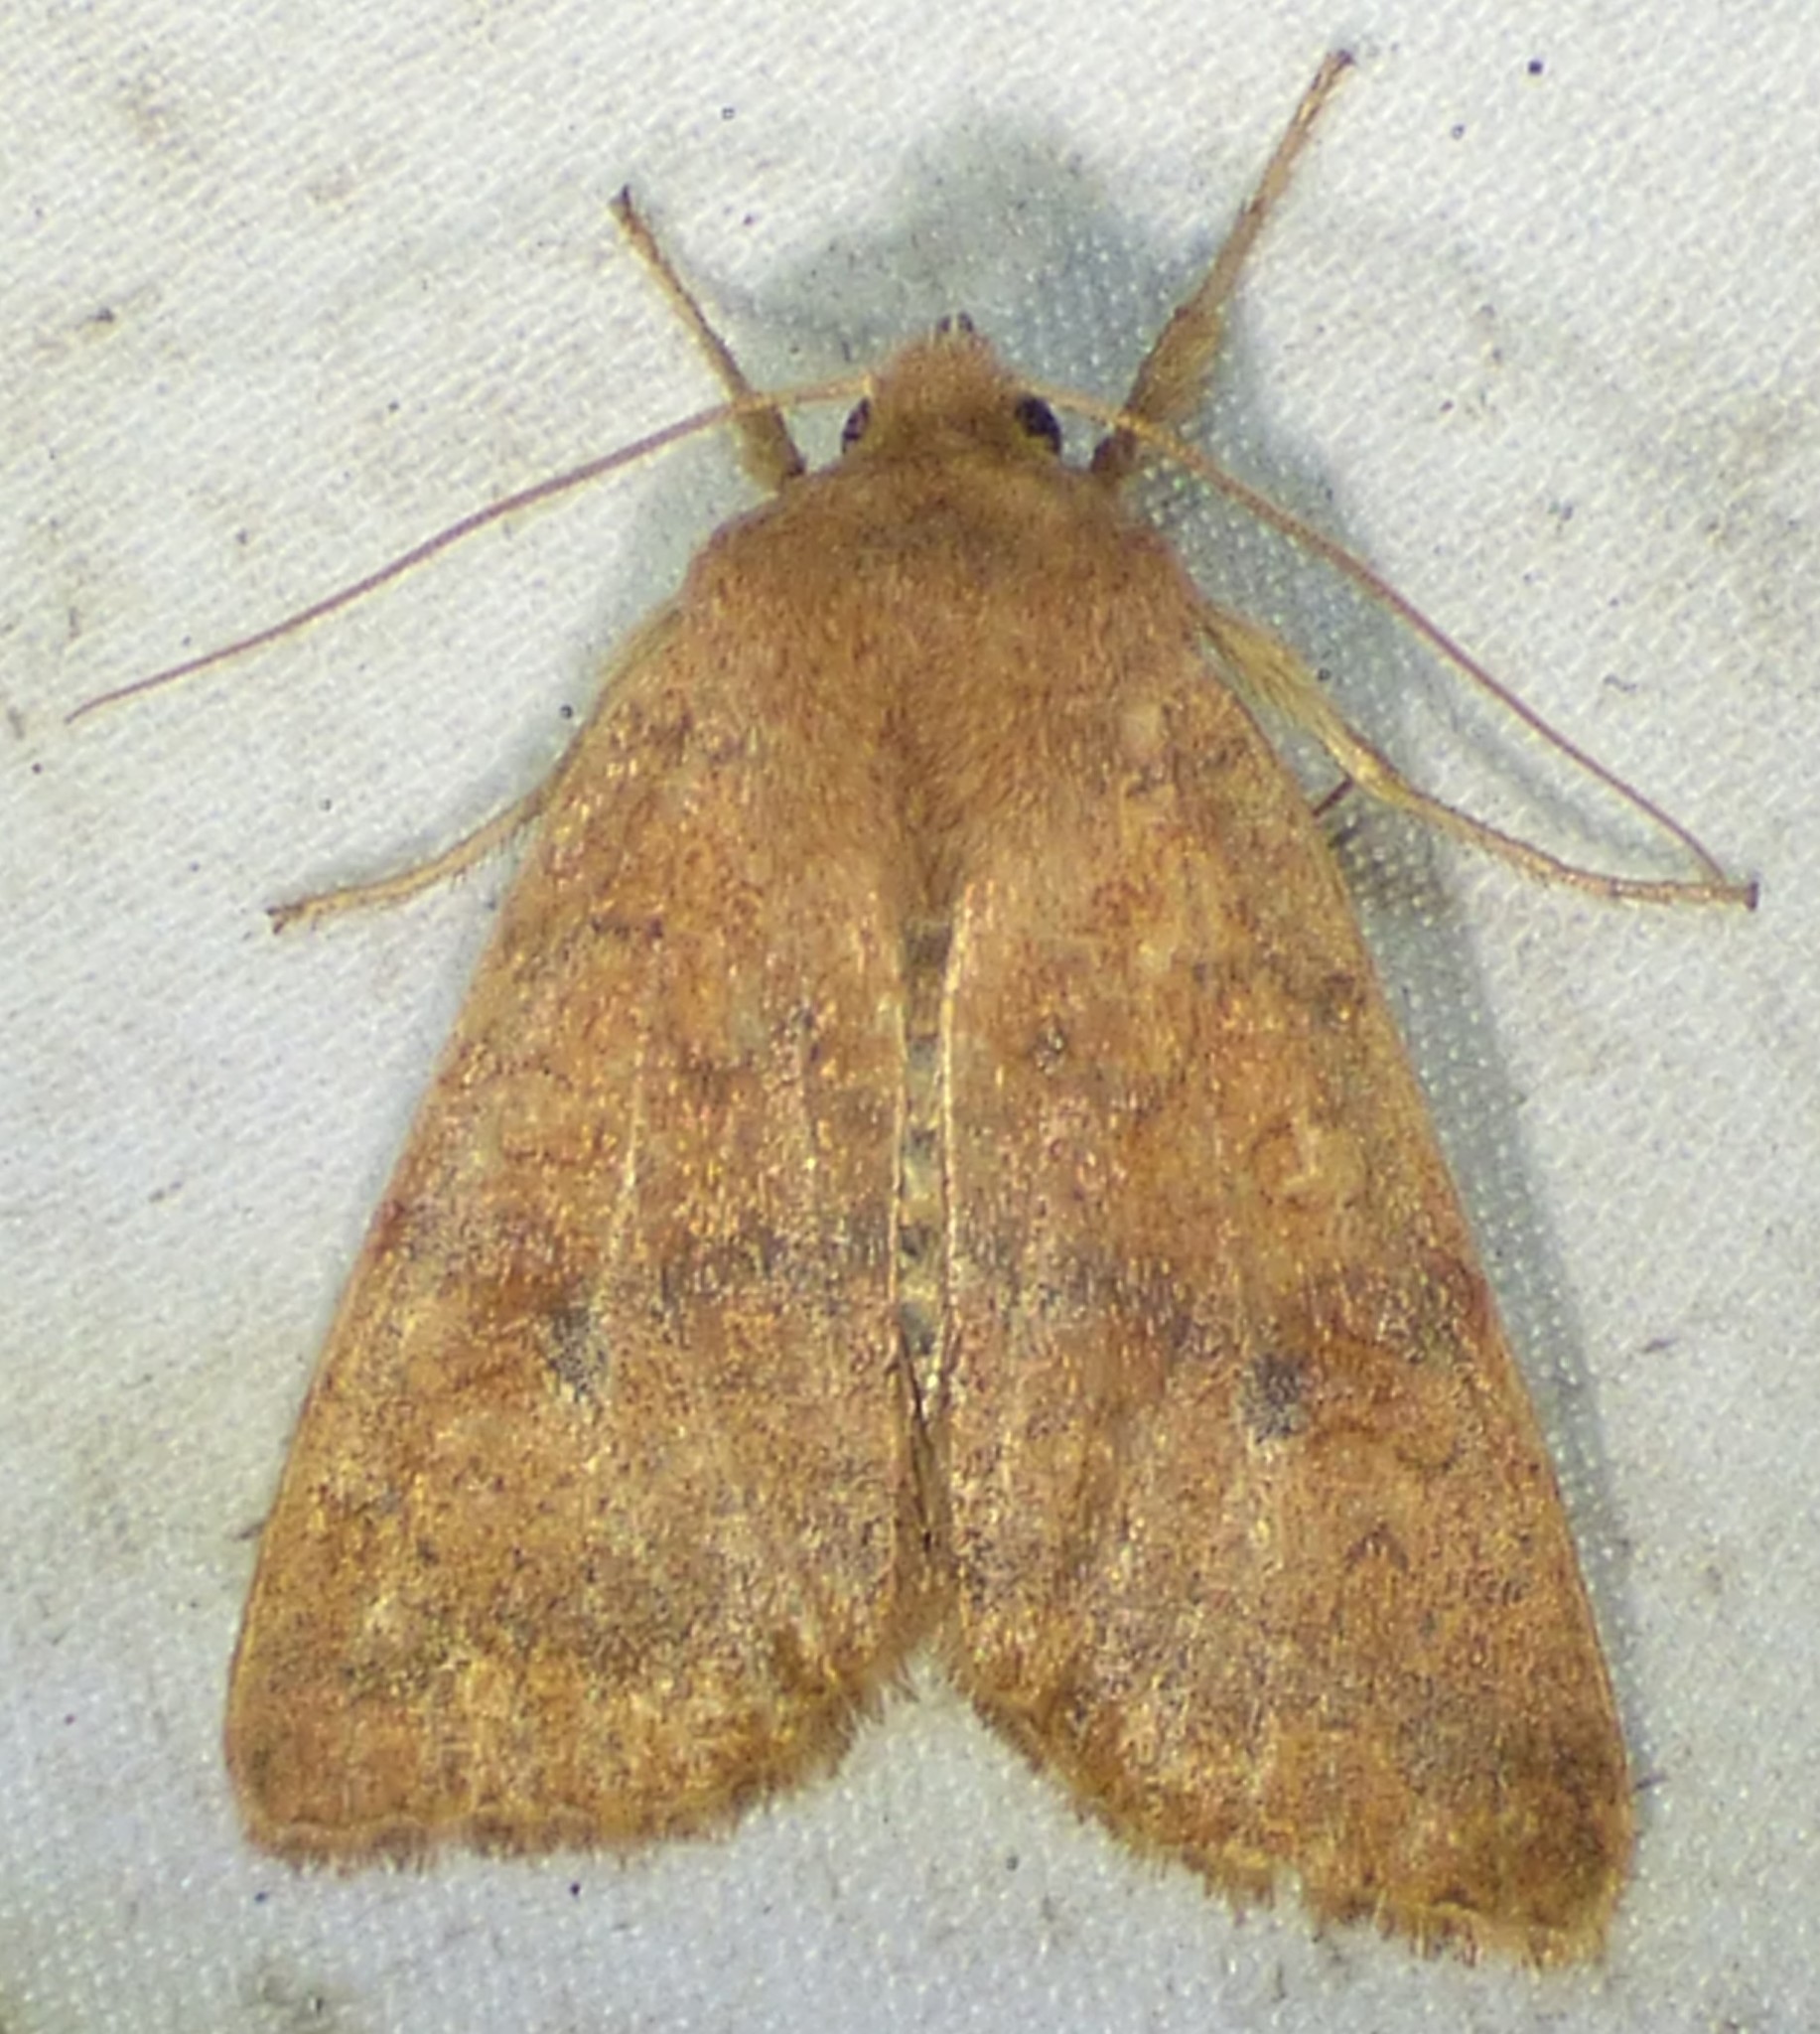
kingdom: Animalia
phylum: Arthropoda
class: Insecta
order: Lepidoptera
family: Noctuidae
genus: Agrochola
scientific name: Agrochola bicolorago
